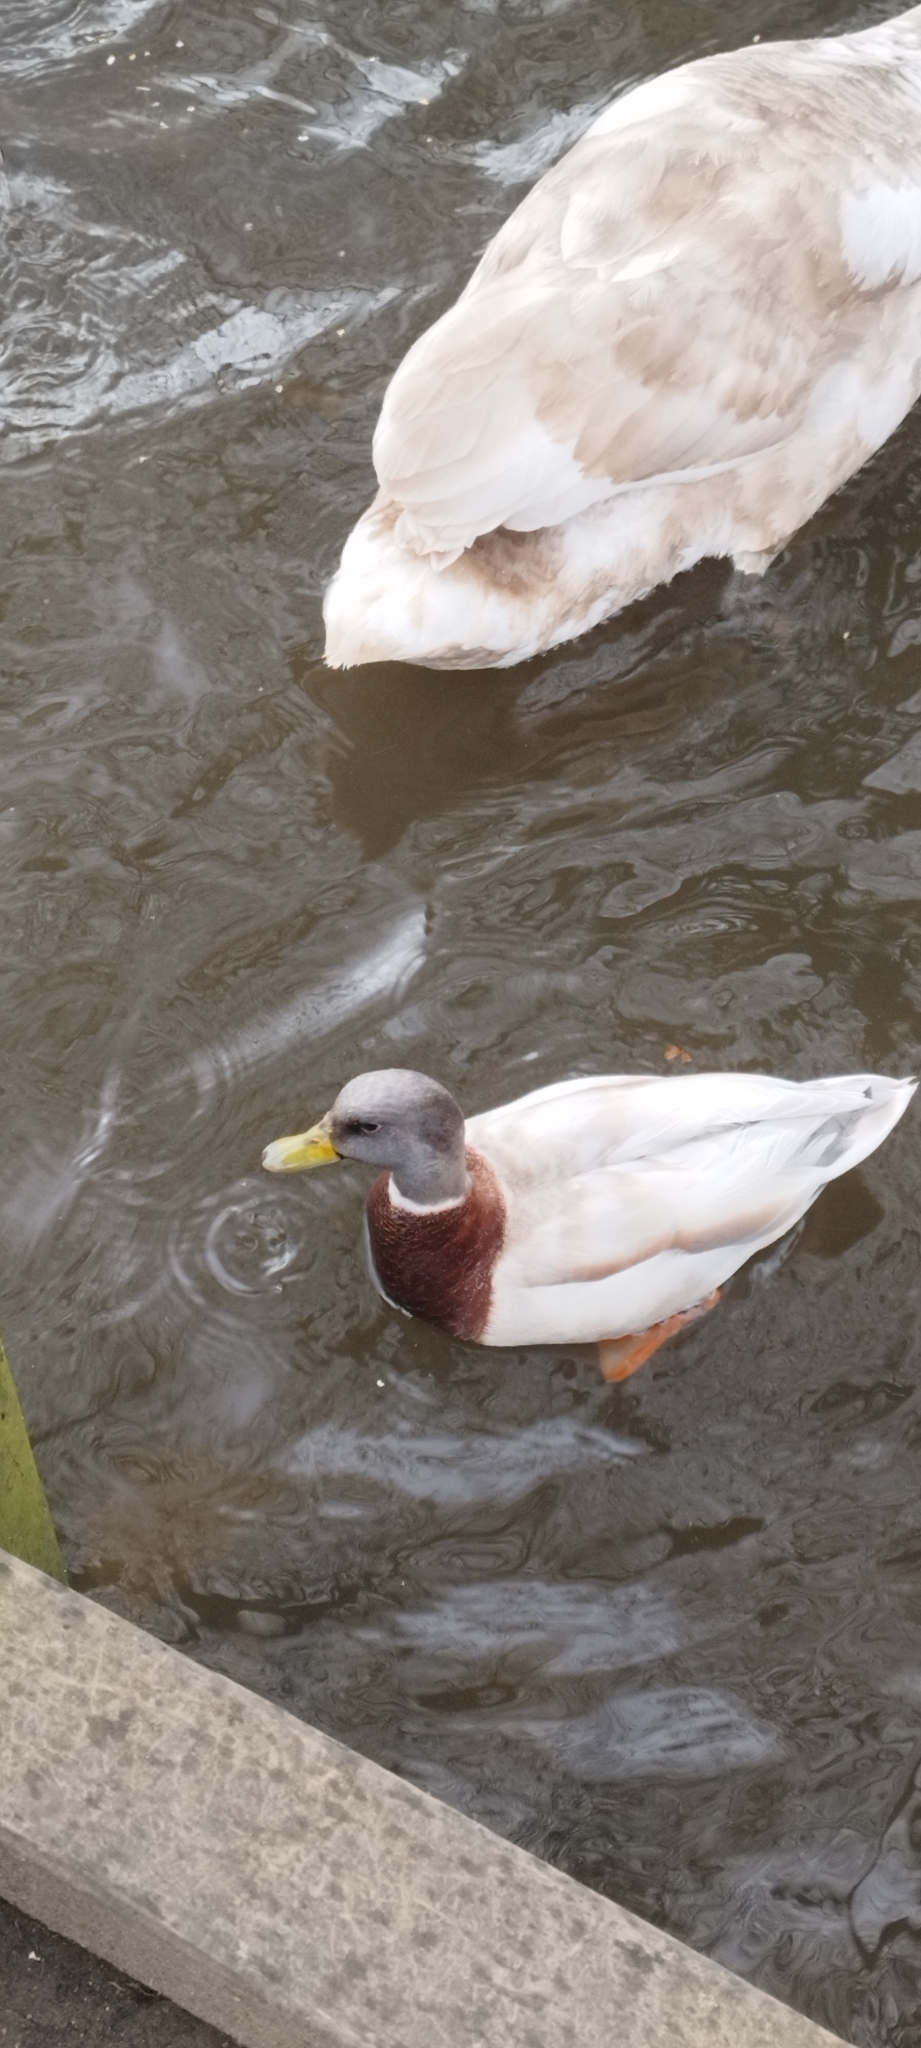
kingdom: Animalia
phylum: Chordata
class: Aves
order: Anseriformes
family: Anatidae
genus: Anas
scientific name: Anas platyrhynchos
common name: Mallard
